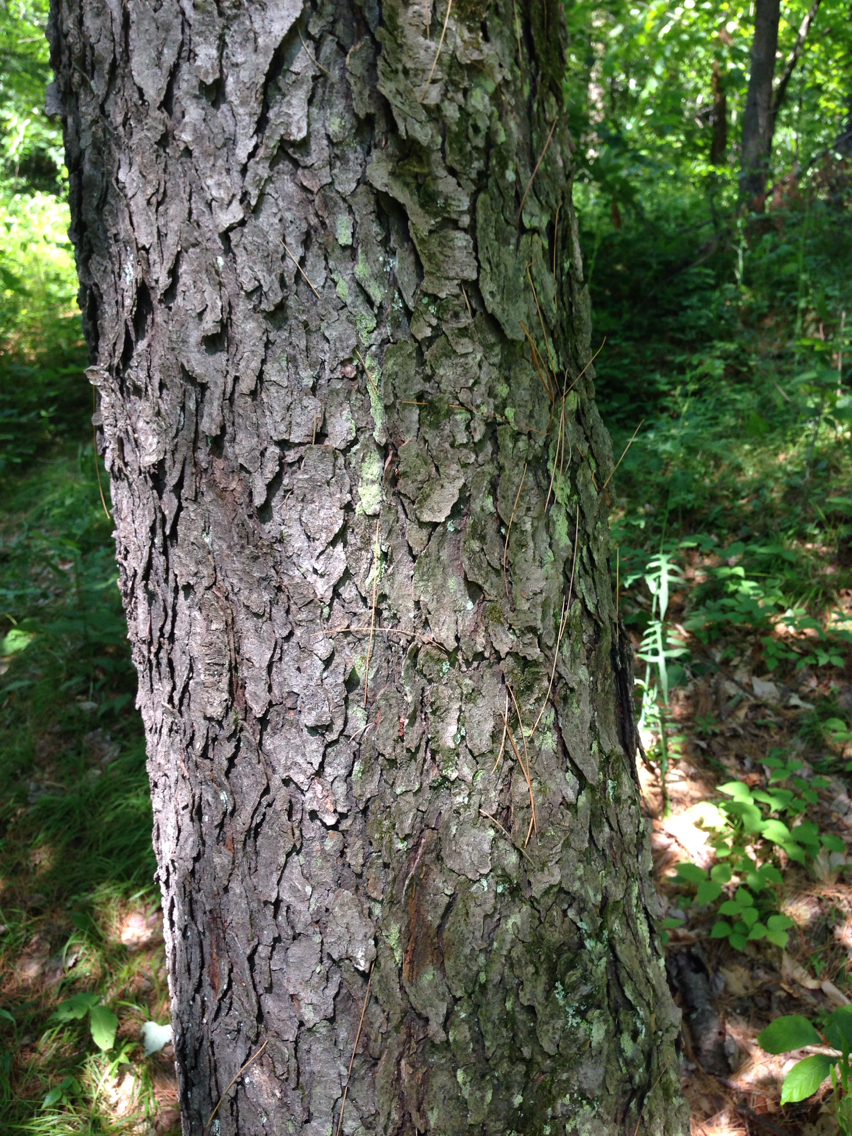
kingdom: Plantae
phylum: Tracheophyta
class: Magnoliopsida
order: Rosales
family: Rosaceae
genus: Prunus
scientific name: Prunus serotina
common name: Black cherry
